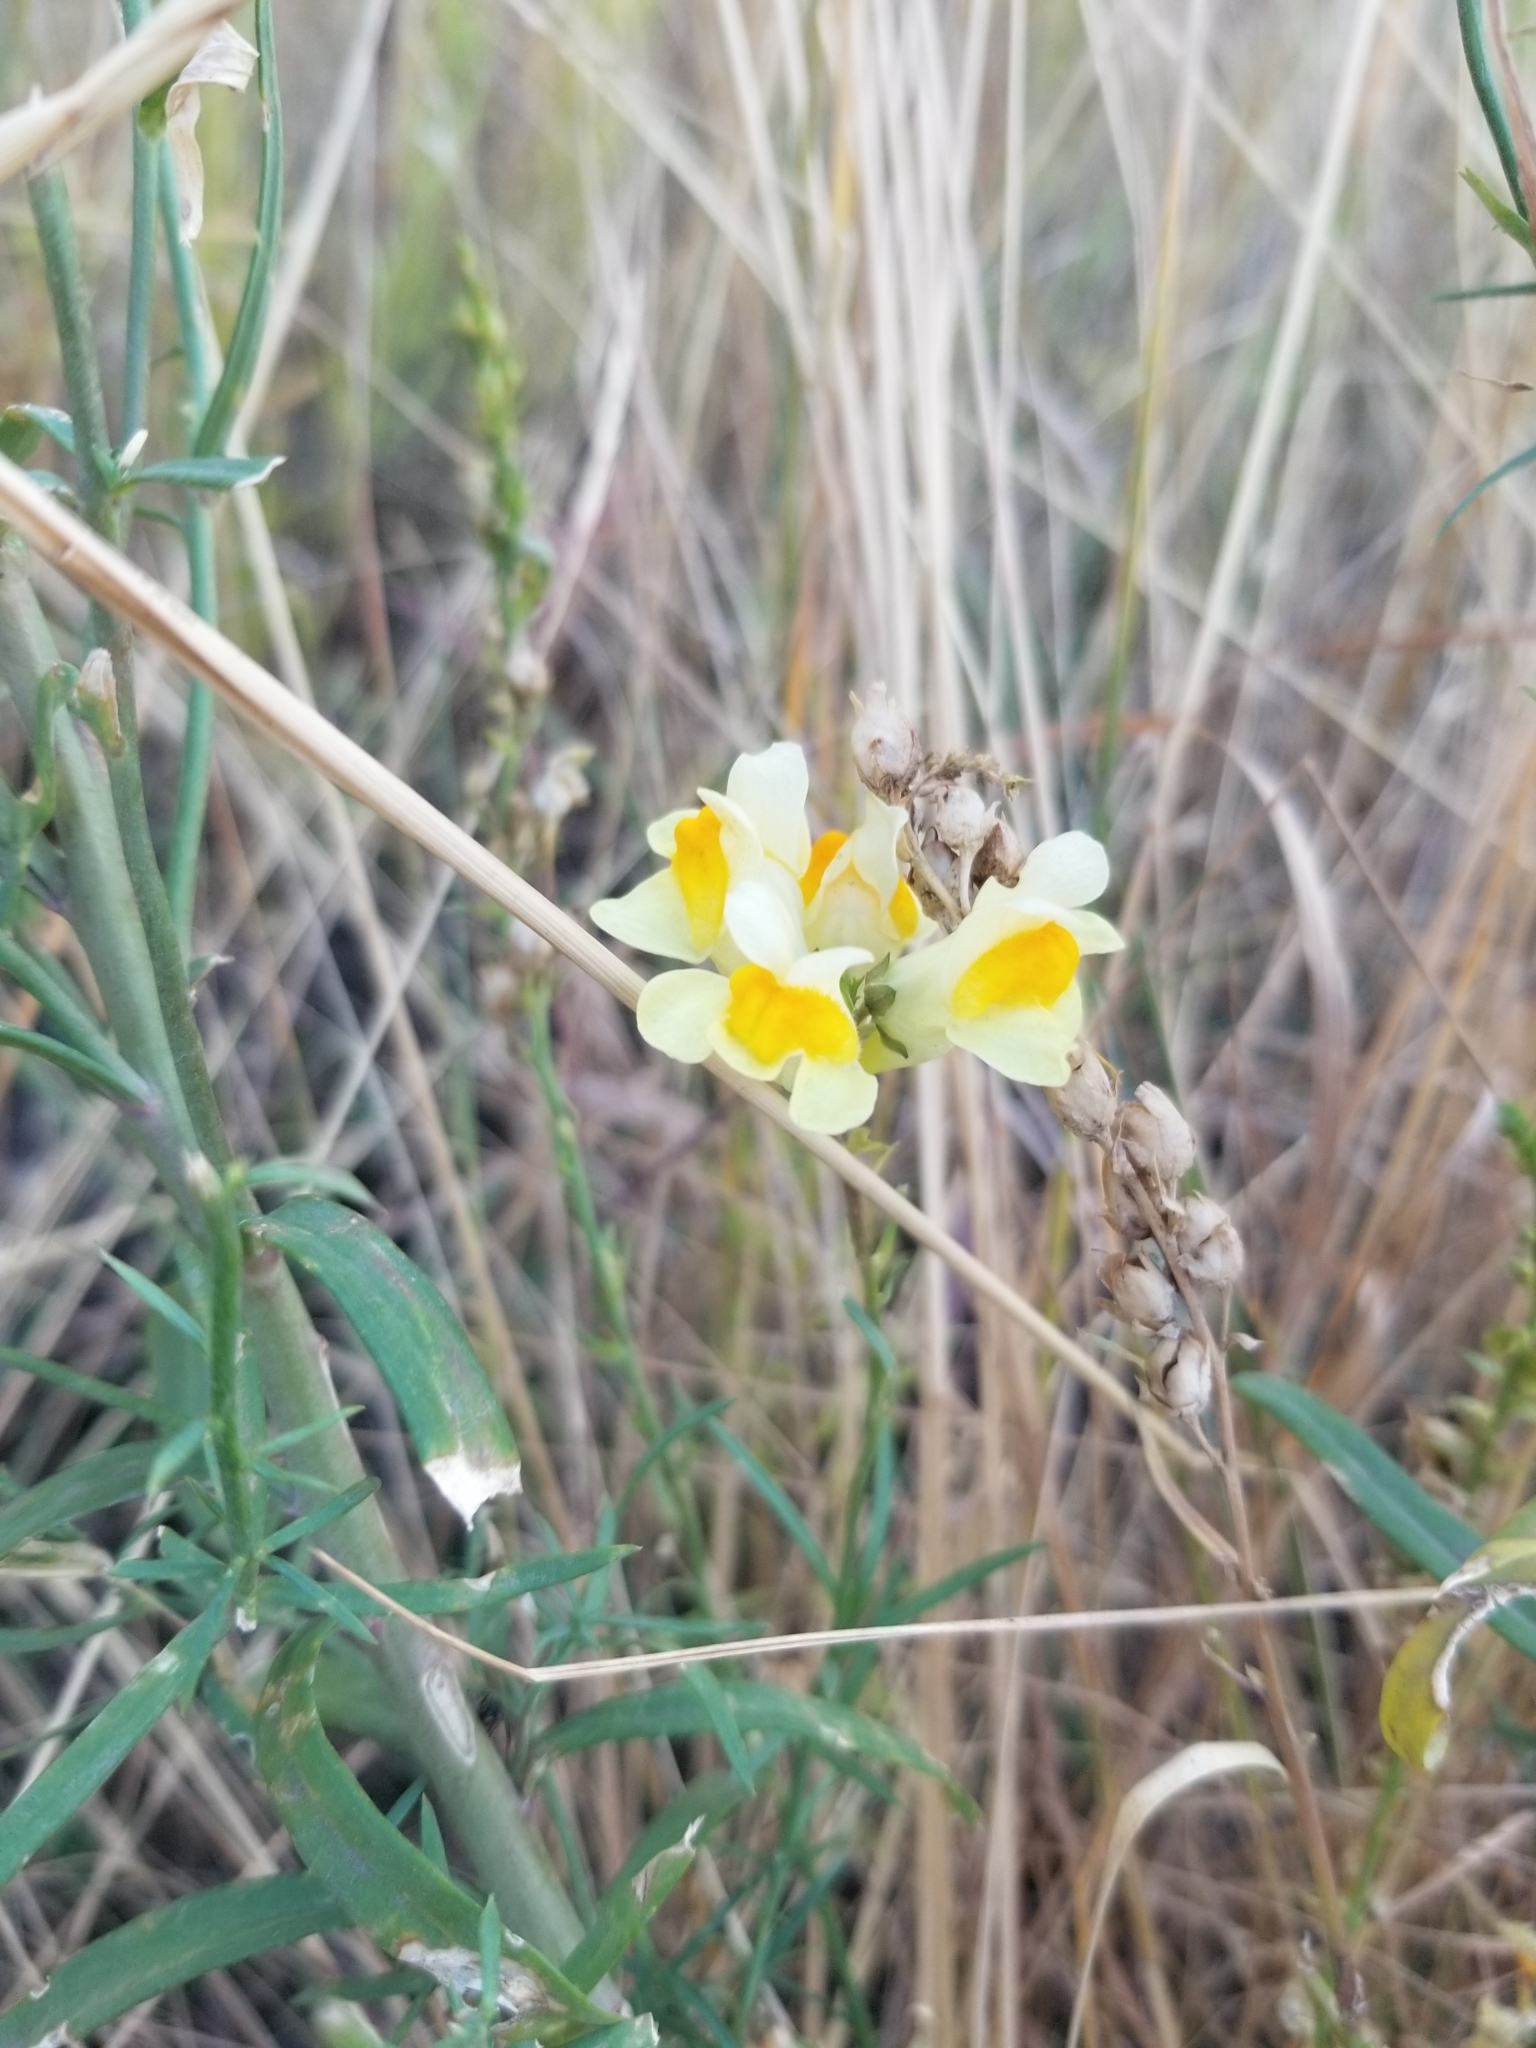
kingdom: Plantae
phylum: Tracheophyta
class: Magnoliopsida
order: Lamiales
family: Plantaginaceae
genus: Linaria
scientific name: Linaria vulgaris
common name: Butter and eggs
